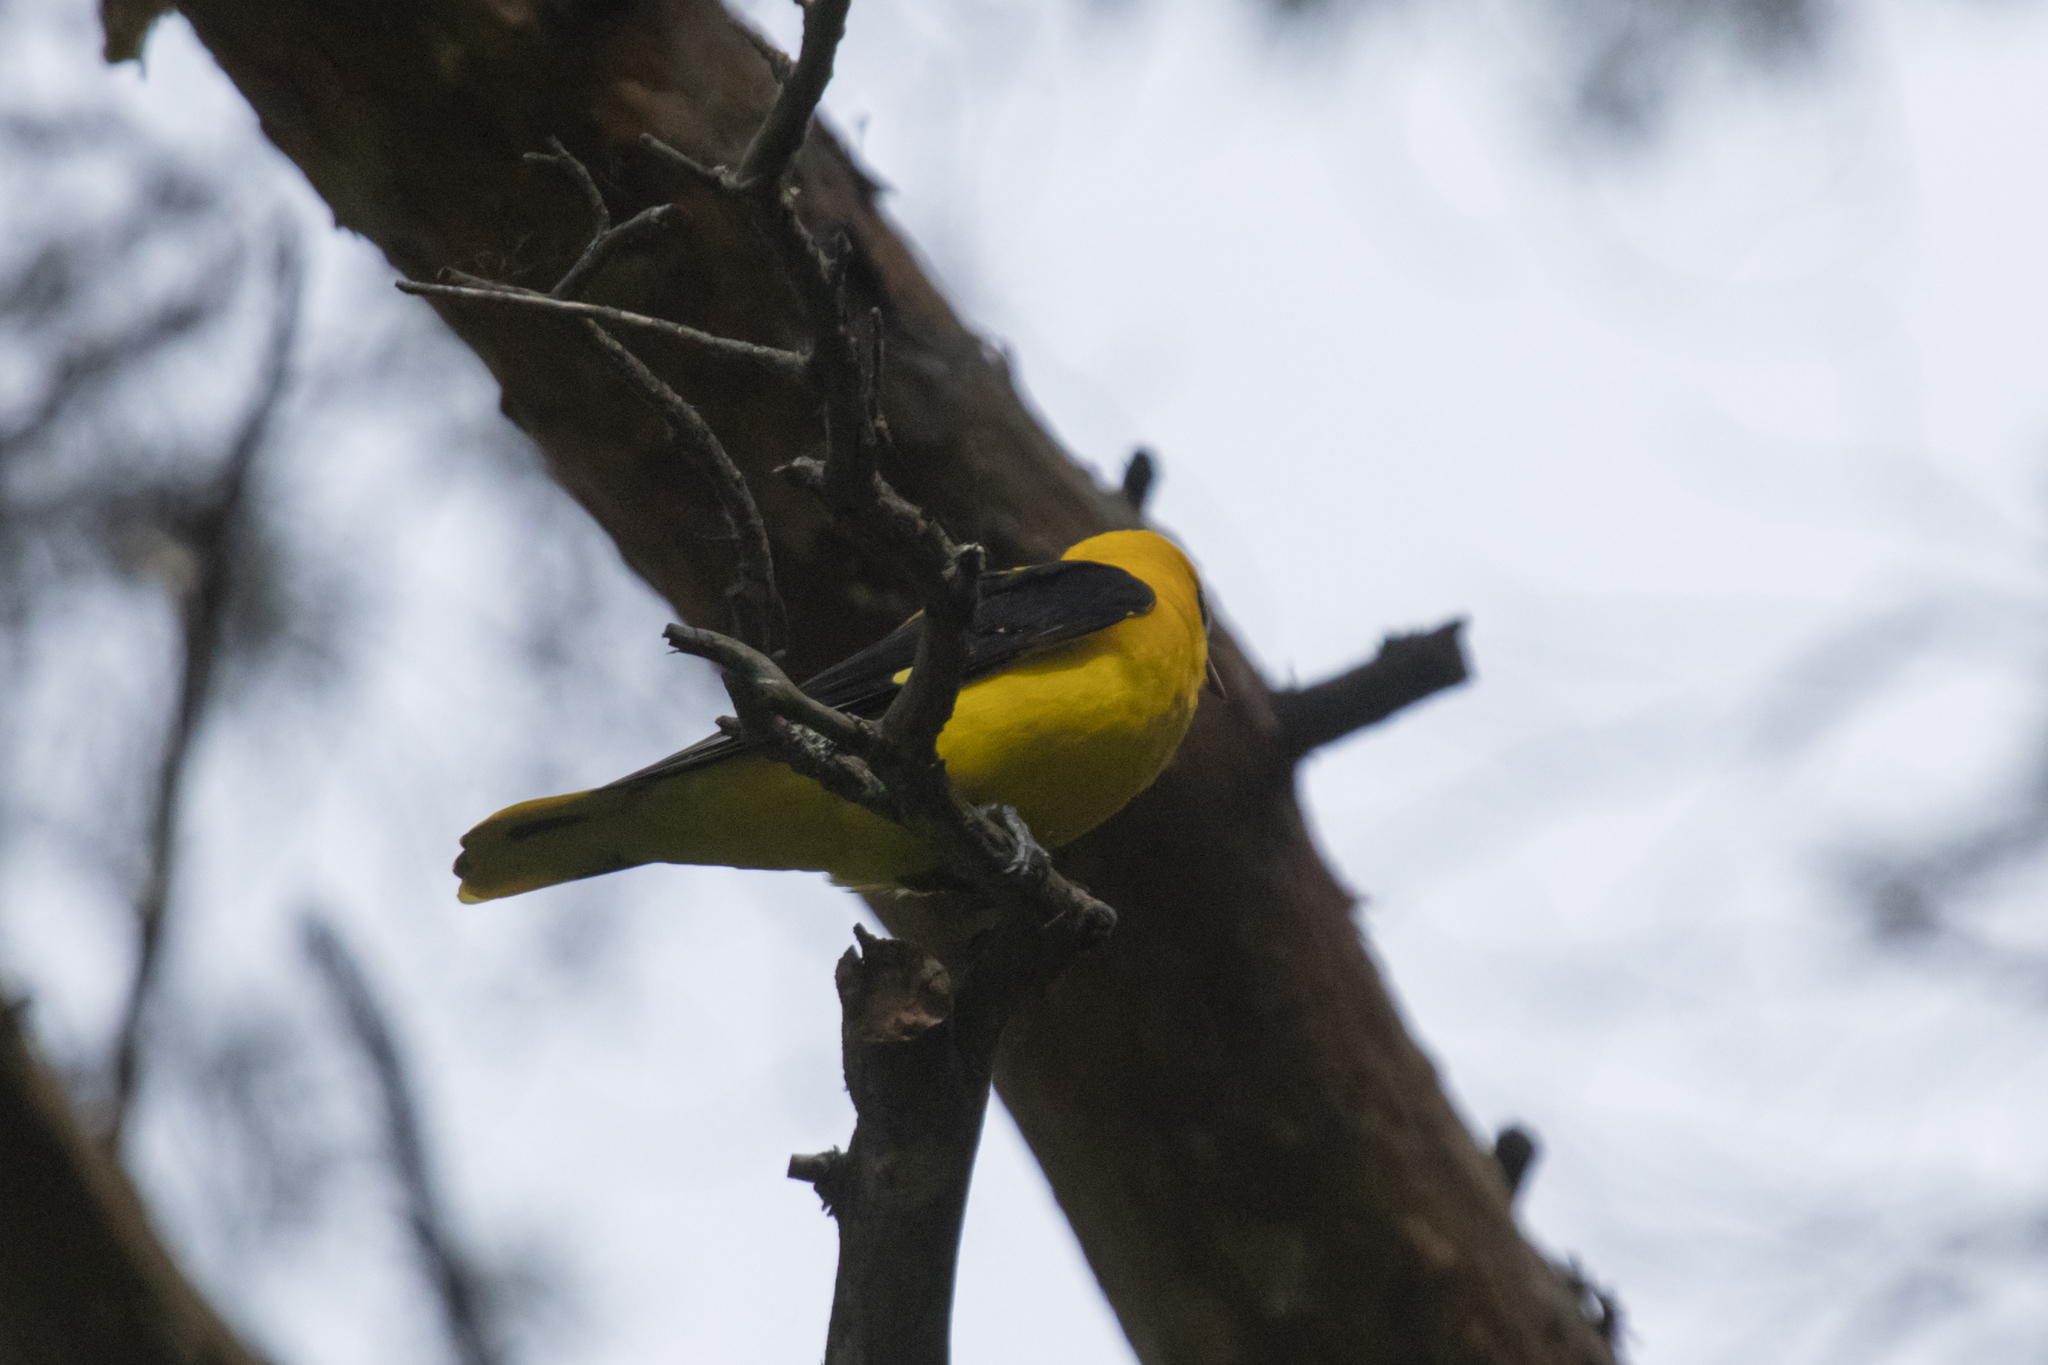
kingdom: Animalia
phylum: Chordata
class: Aves
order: Passeriformes
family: Oriolidae
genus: Oriolus
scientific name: Oriolus oriolus
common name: Eurasian golden oriole
